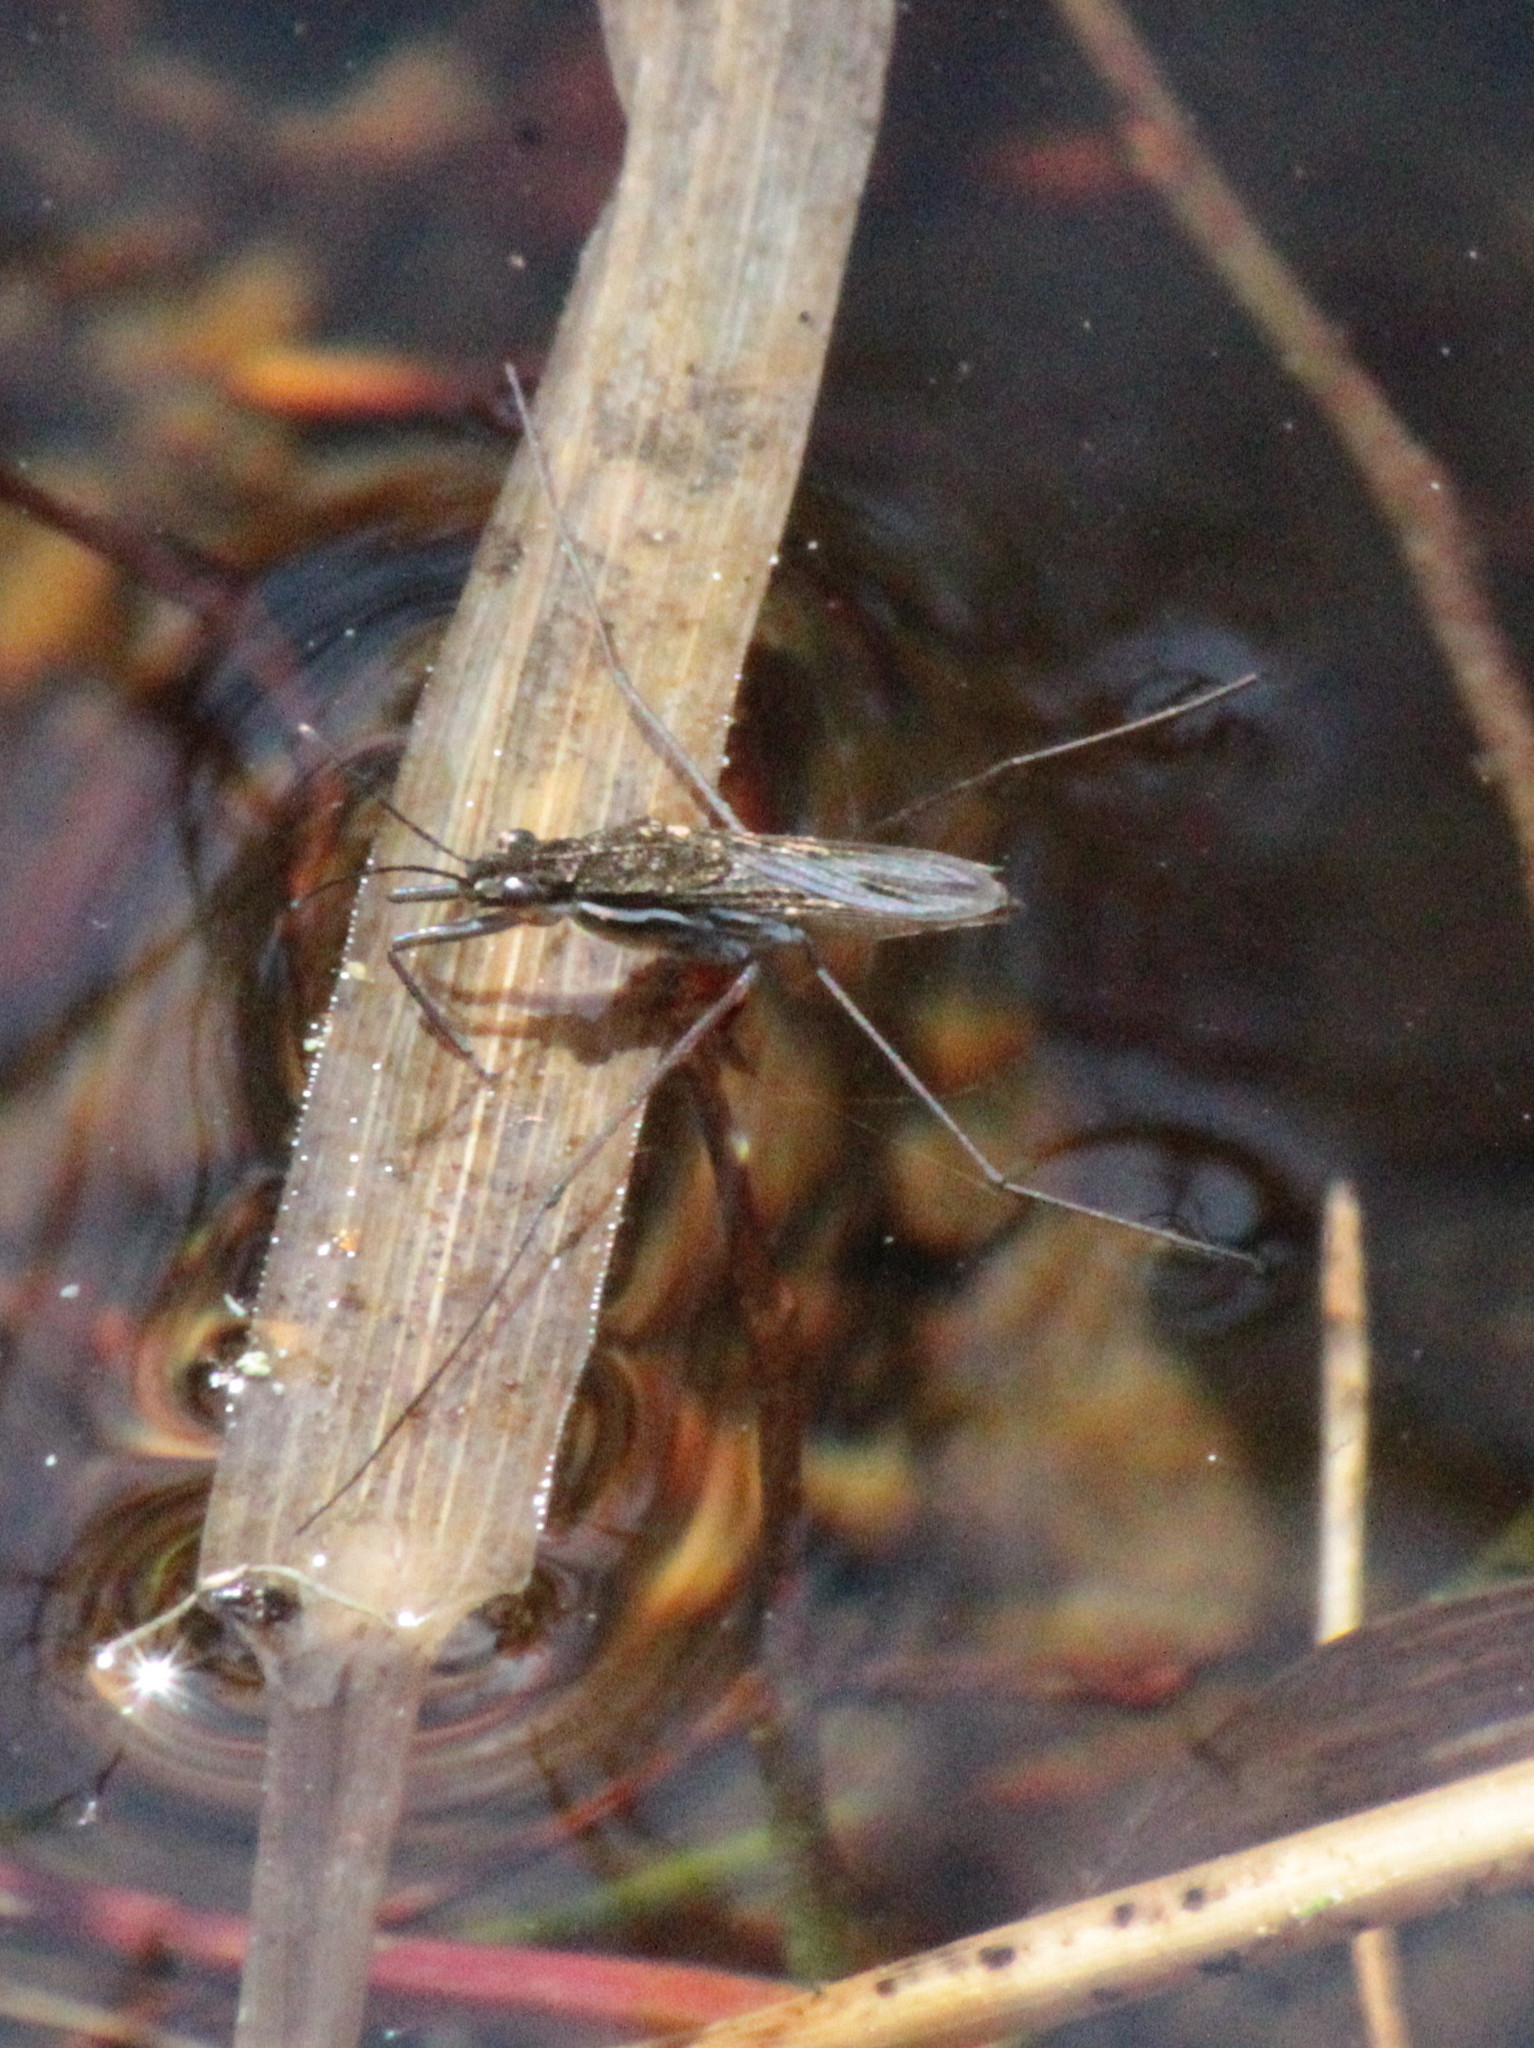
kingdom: Animalia
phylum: Arthropoda
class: Insecta
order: Hemiptera
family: Gerridae
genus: Gerris
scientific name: Gerris
